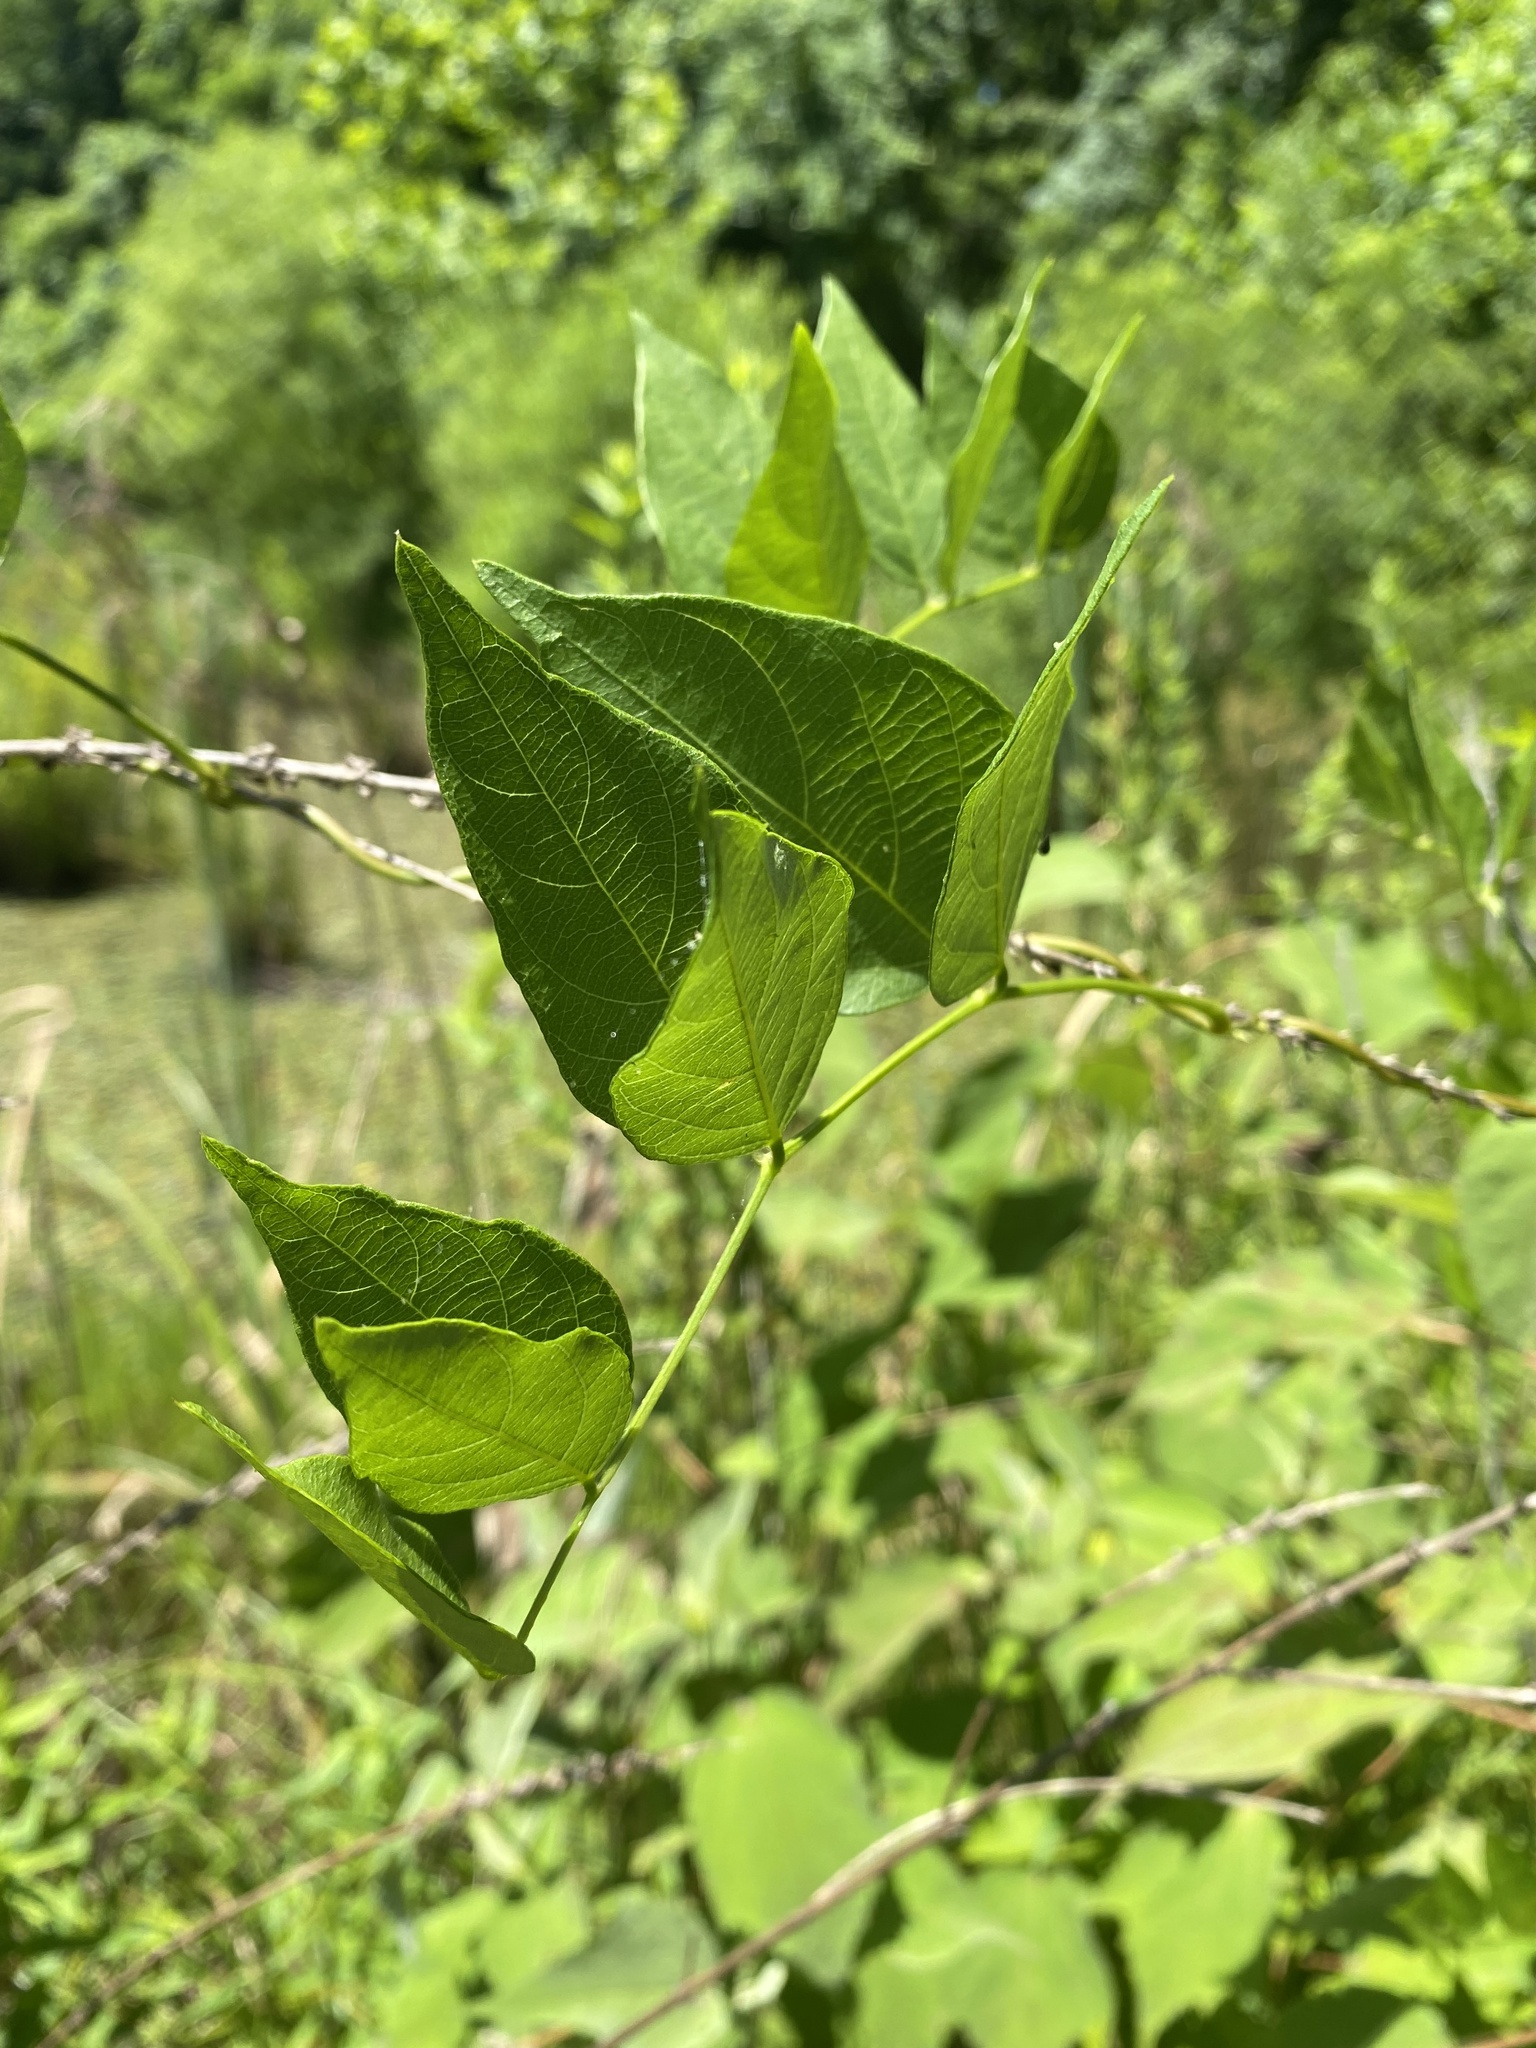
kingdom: Plantae
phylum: Tracheophyta
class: Magnoliopsida
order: Fabales
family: Fabaceae
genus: Apios
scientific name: Apios americana
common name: American potato-bean
